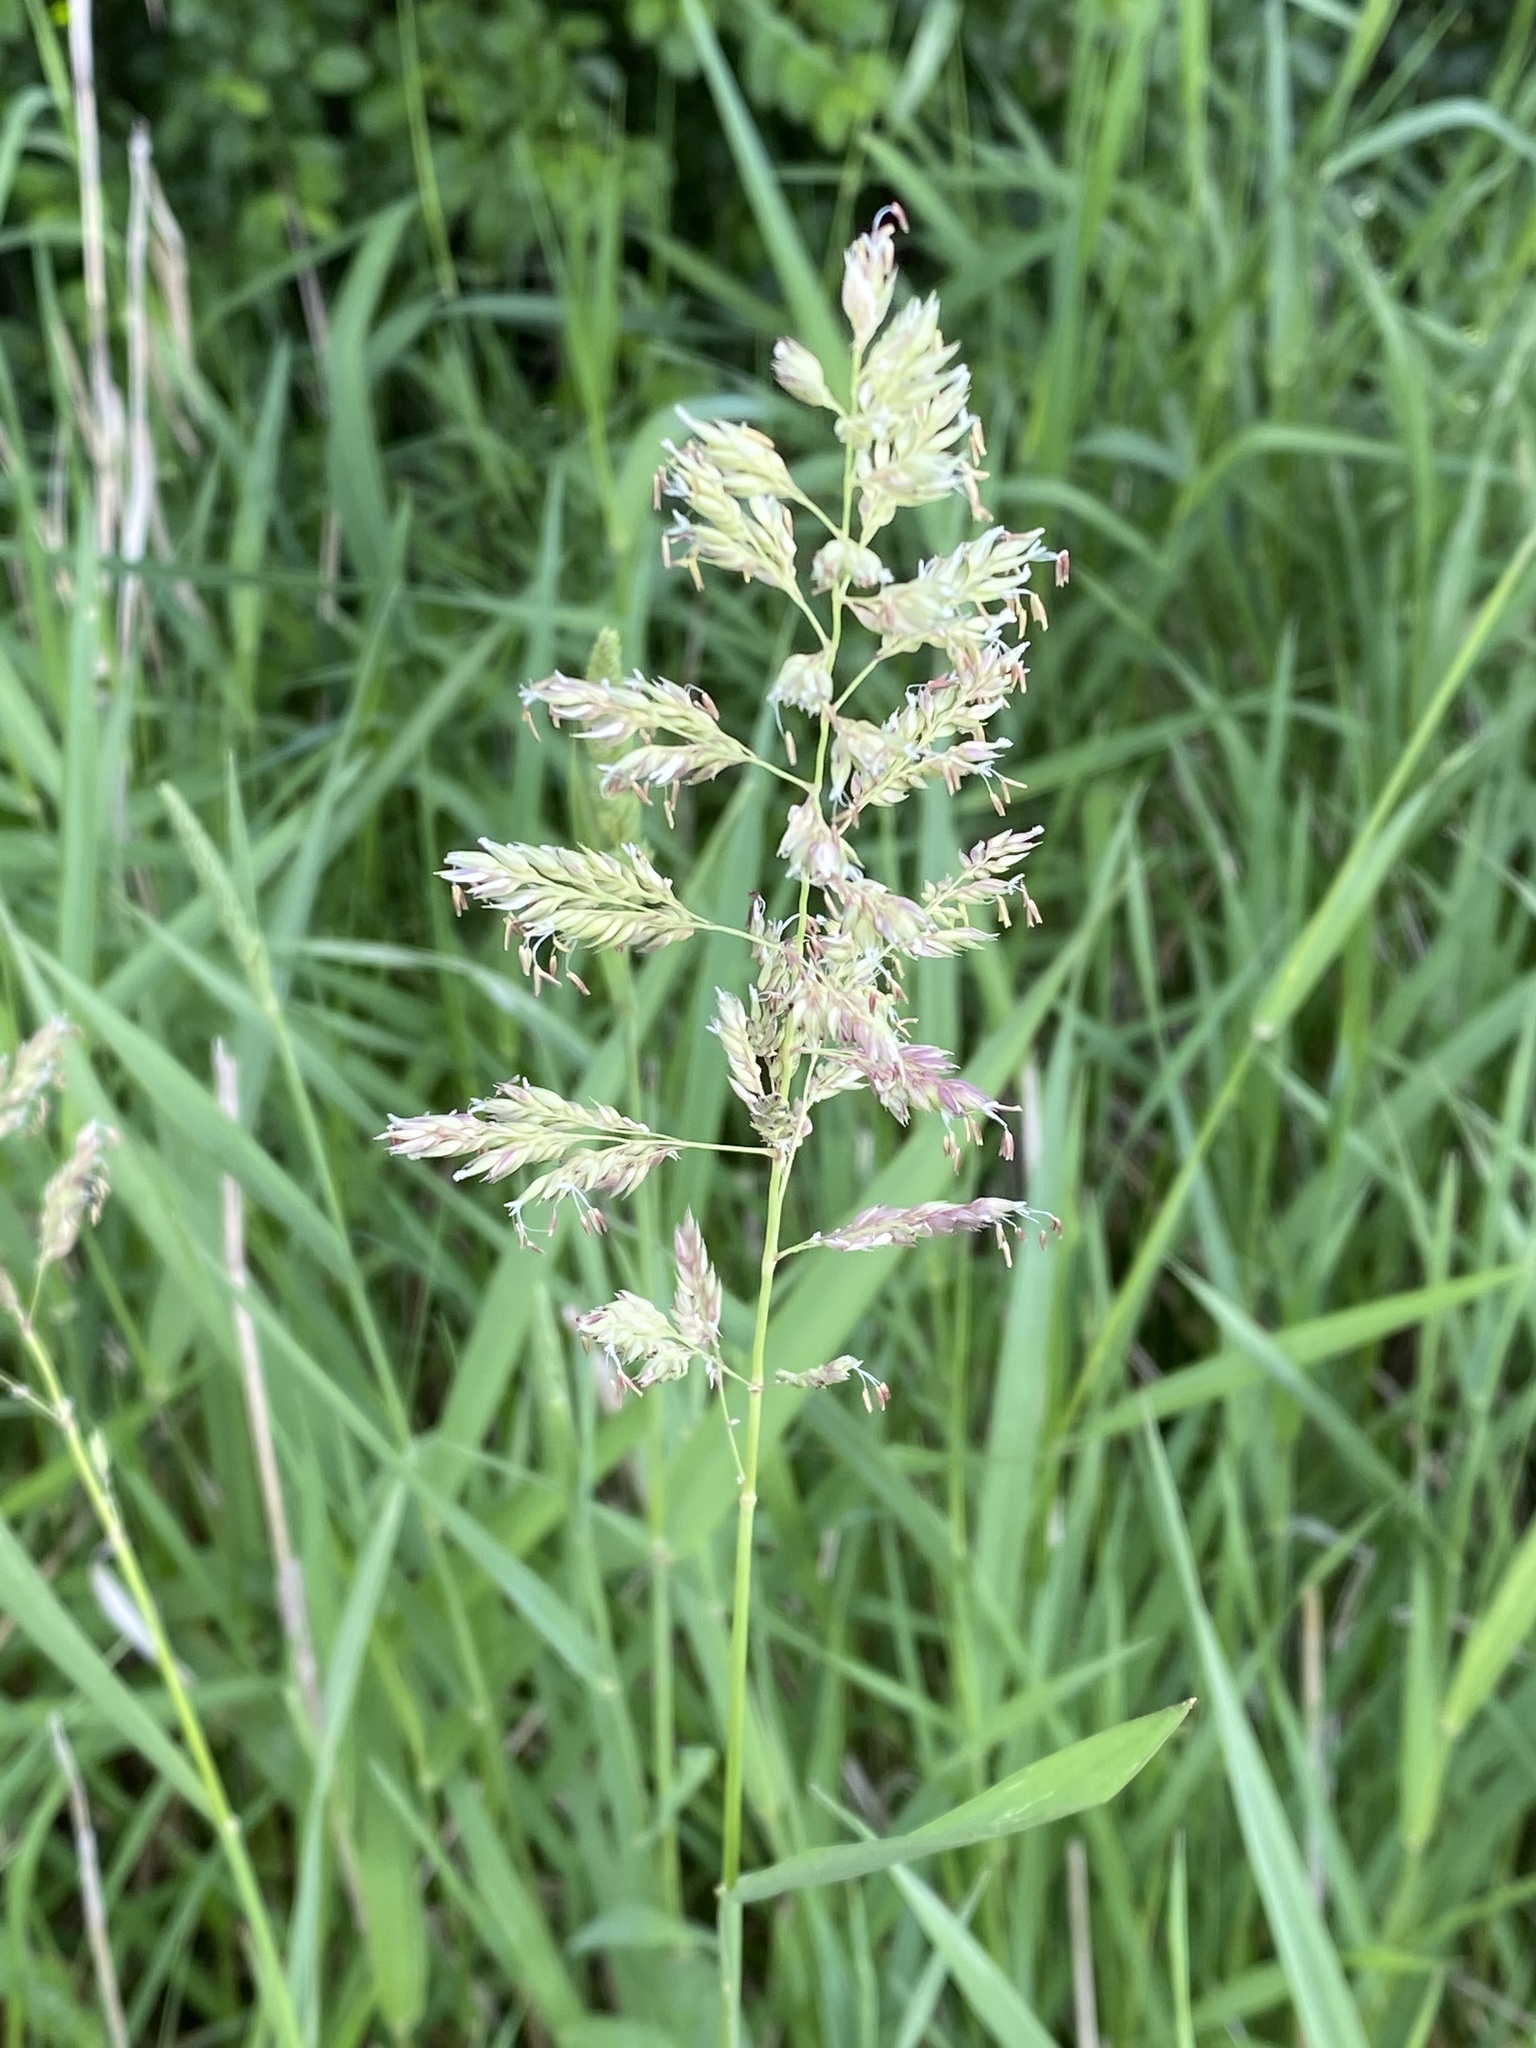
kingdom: Plantae
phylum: Tracheophyta
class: Liliopsida
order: Poales
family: Poaceae
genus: Phalaris
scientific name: Phalaris arundinacea
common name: Reed canary-grass
